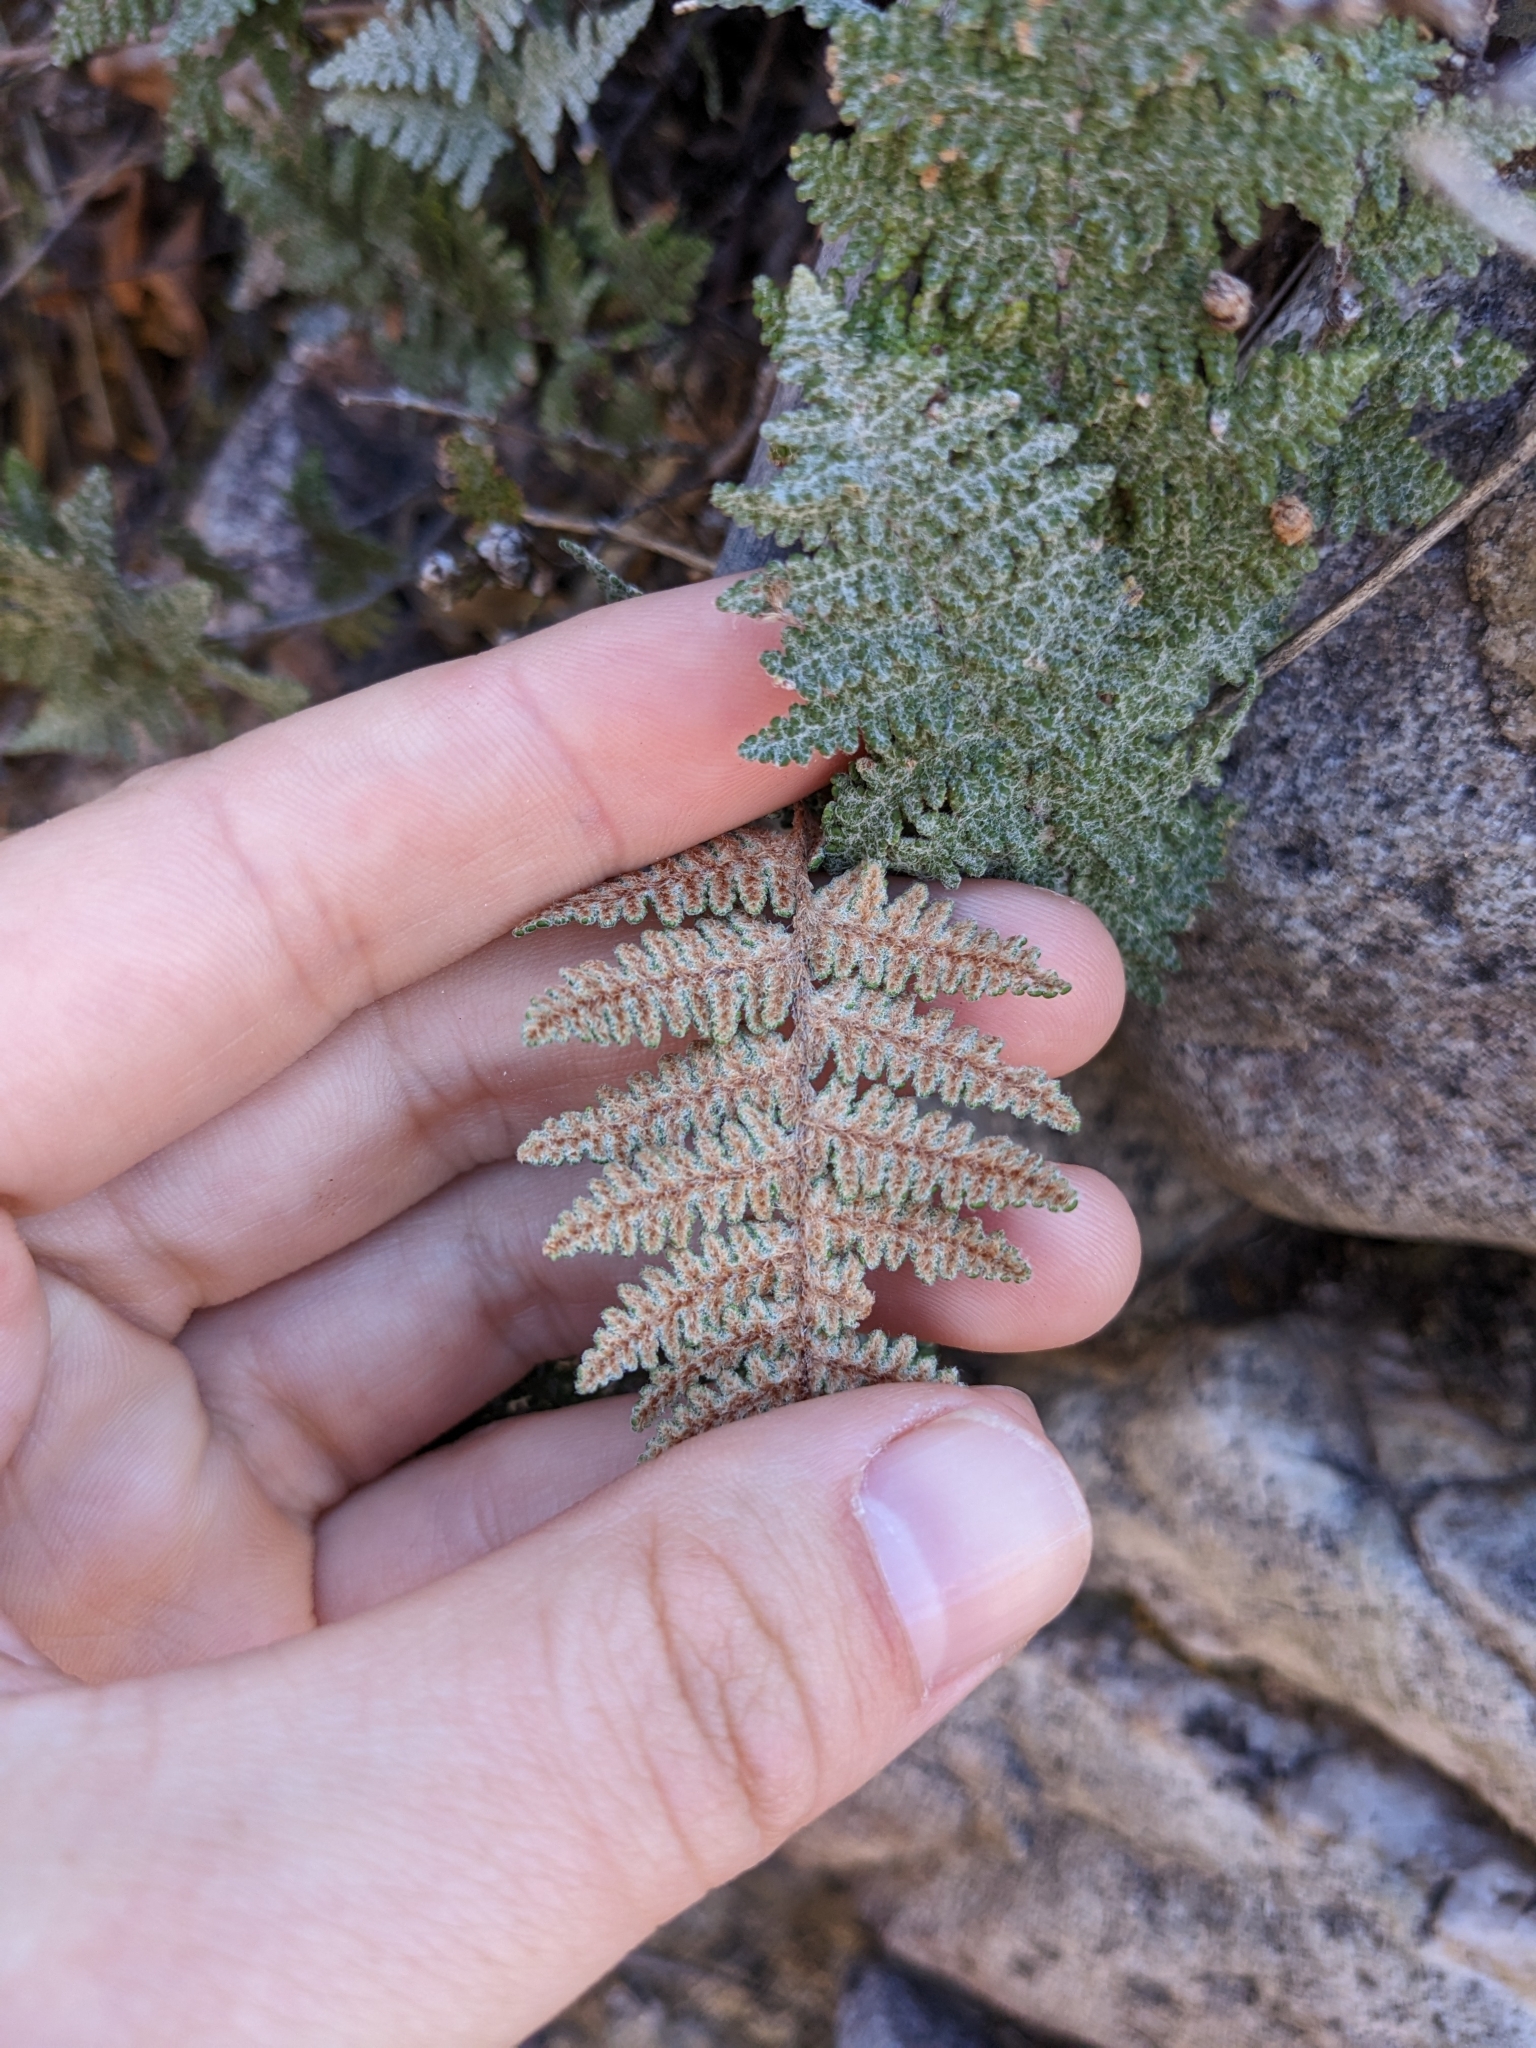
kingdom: Plantae
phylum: Tracheophyta
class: Polypodiopsida
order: Polypodiales
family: Pteridaceae
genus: Myriopteris
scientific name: Myriopteris lindheimeri
